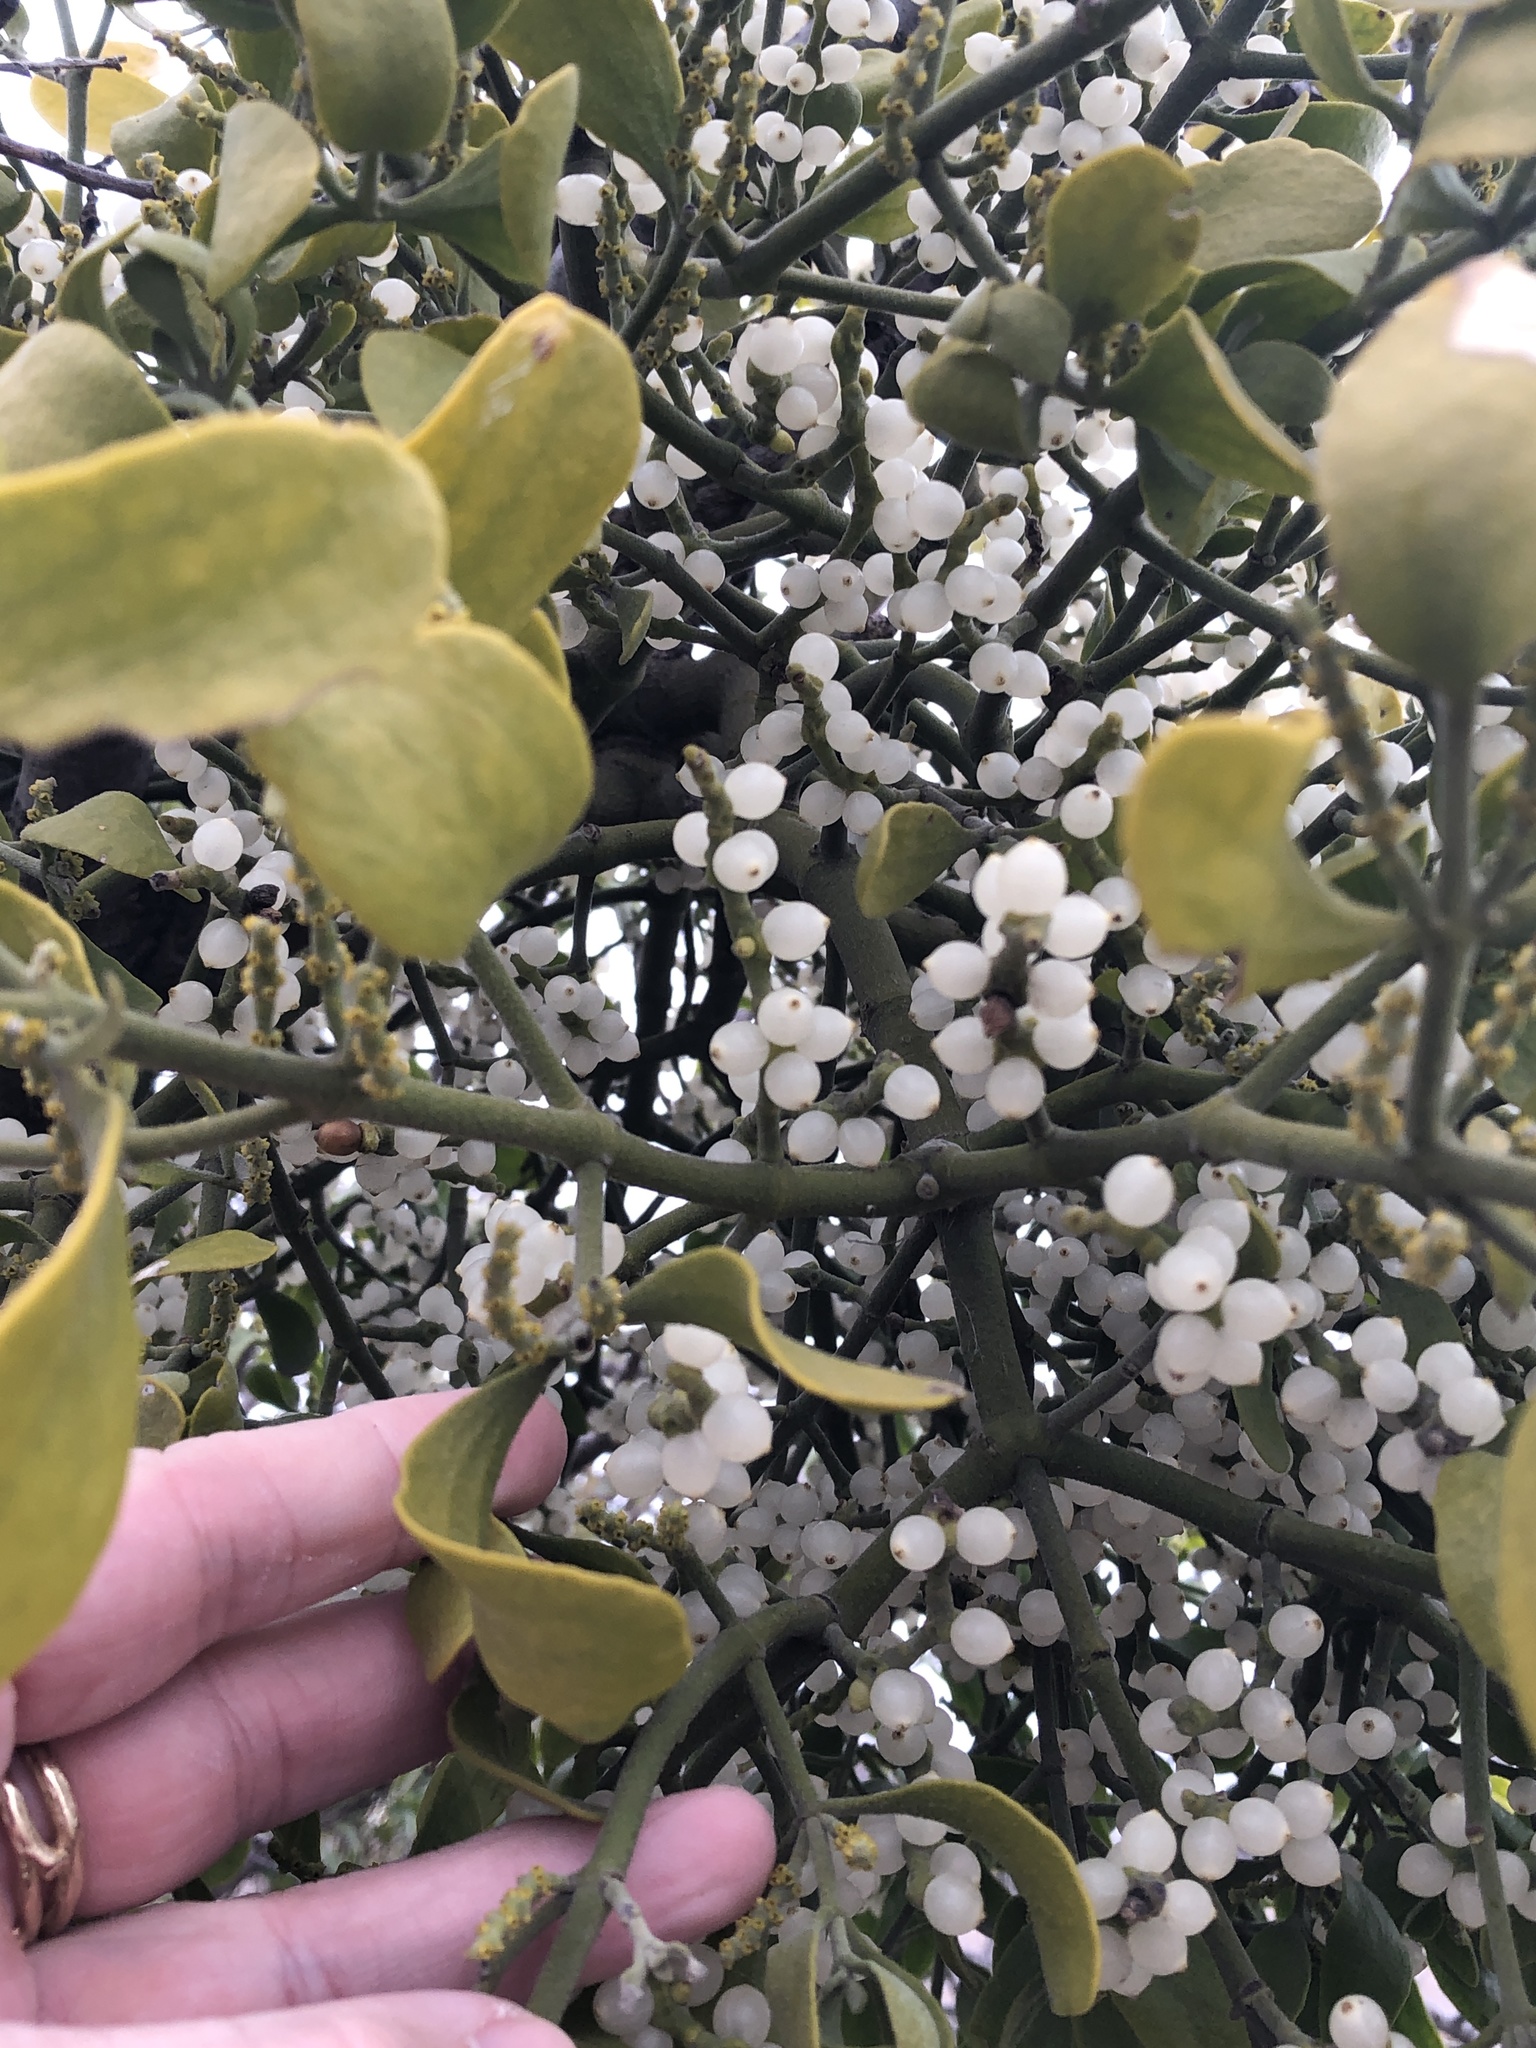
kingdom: Plantae
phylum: Tracheophyta
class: Magnoliopsida
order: Santalales
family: Viscaceae
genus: Phoradendron
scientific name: Phoradendron leucarpum
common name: Pacific mistletoe
